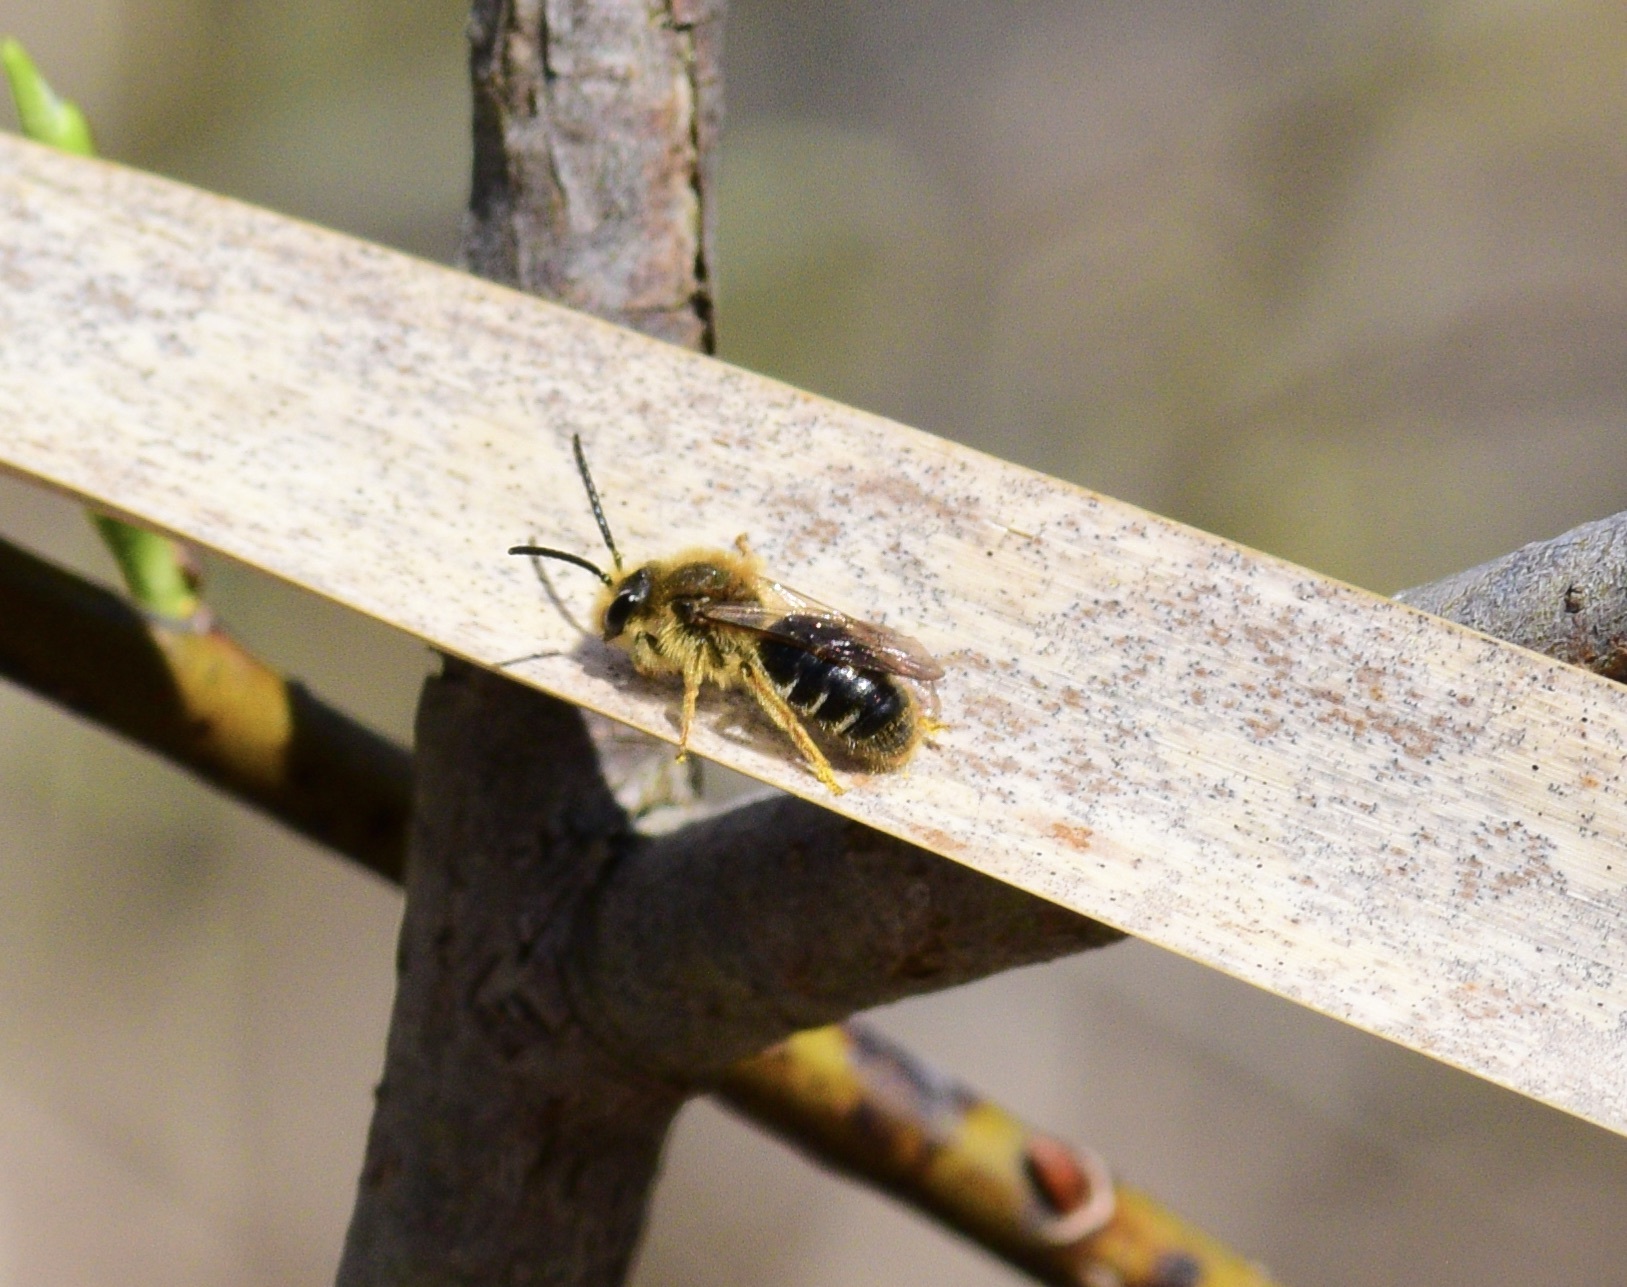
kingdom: Animalia
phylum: Arthropoda
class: Insecta
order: Hymenoptera
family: Andrenidae
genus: Andrena
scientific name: Andrena hippotes
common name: Hippotes's miner bee
